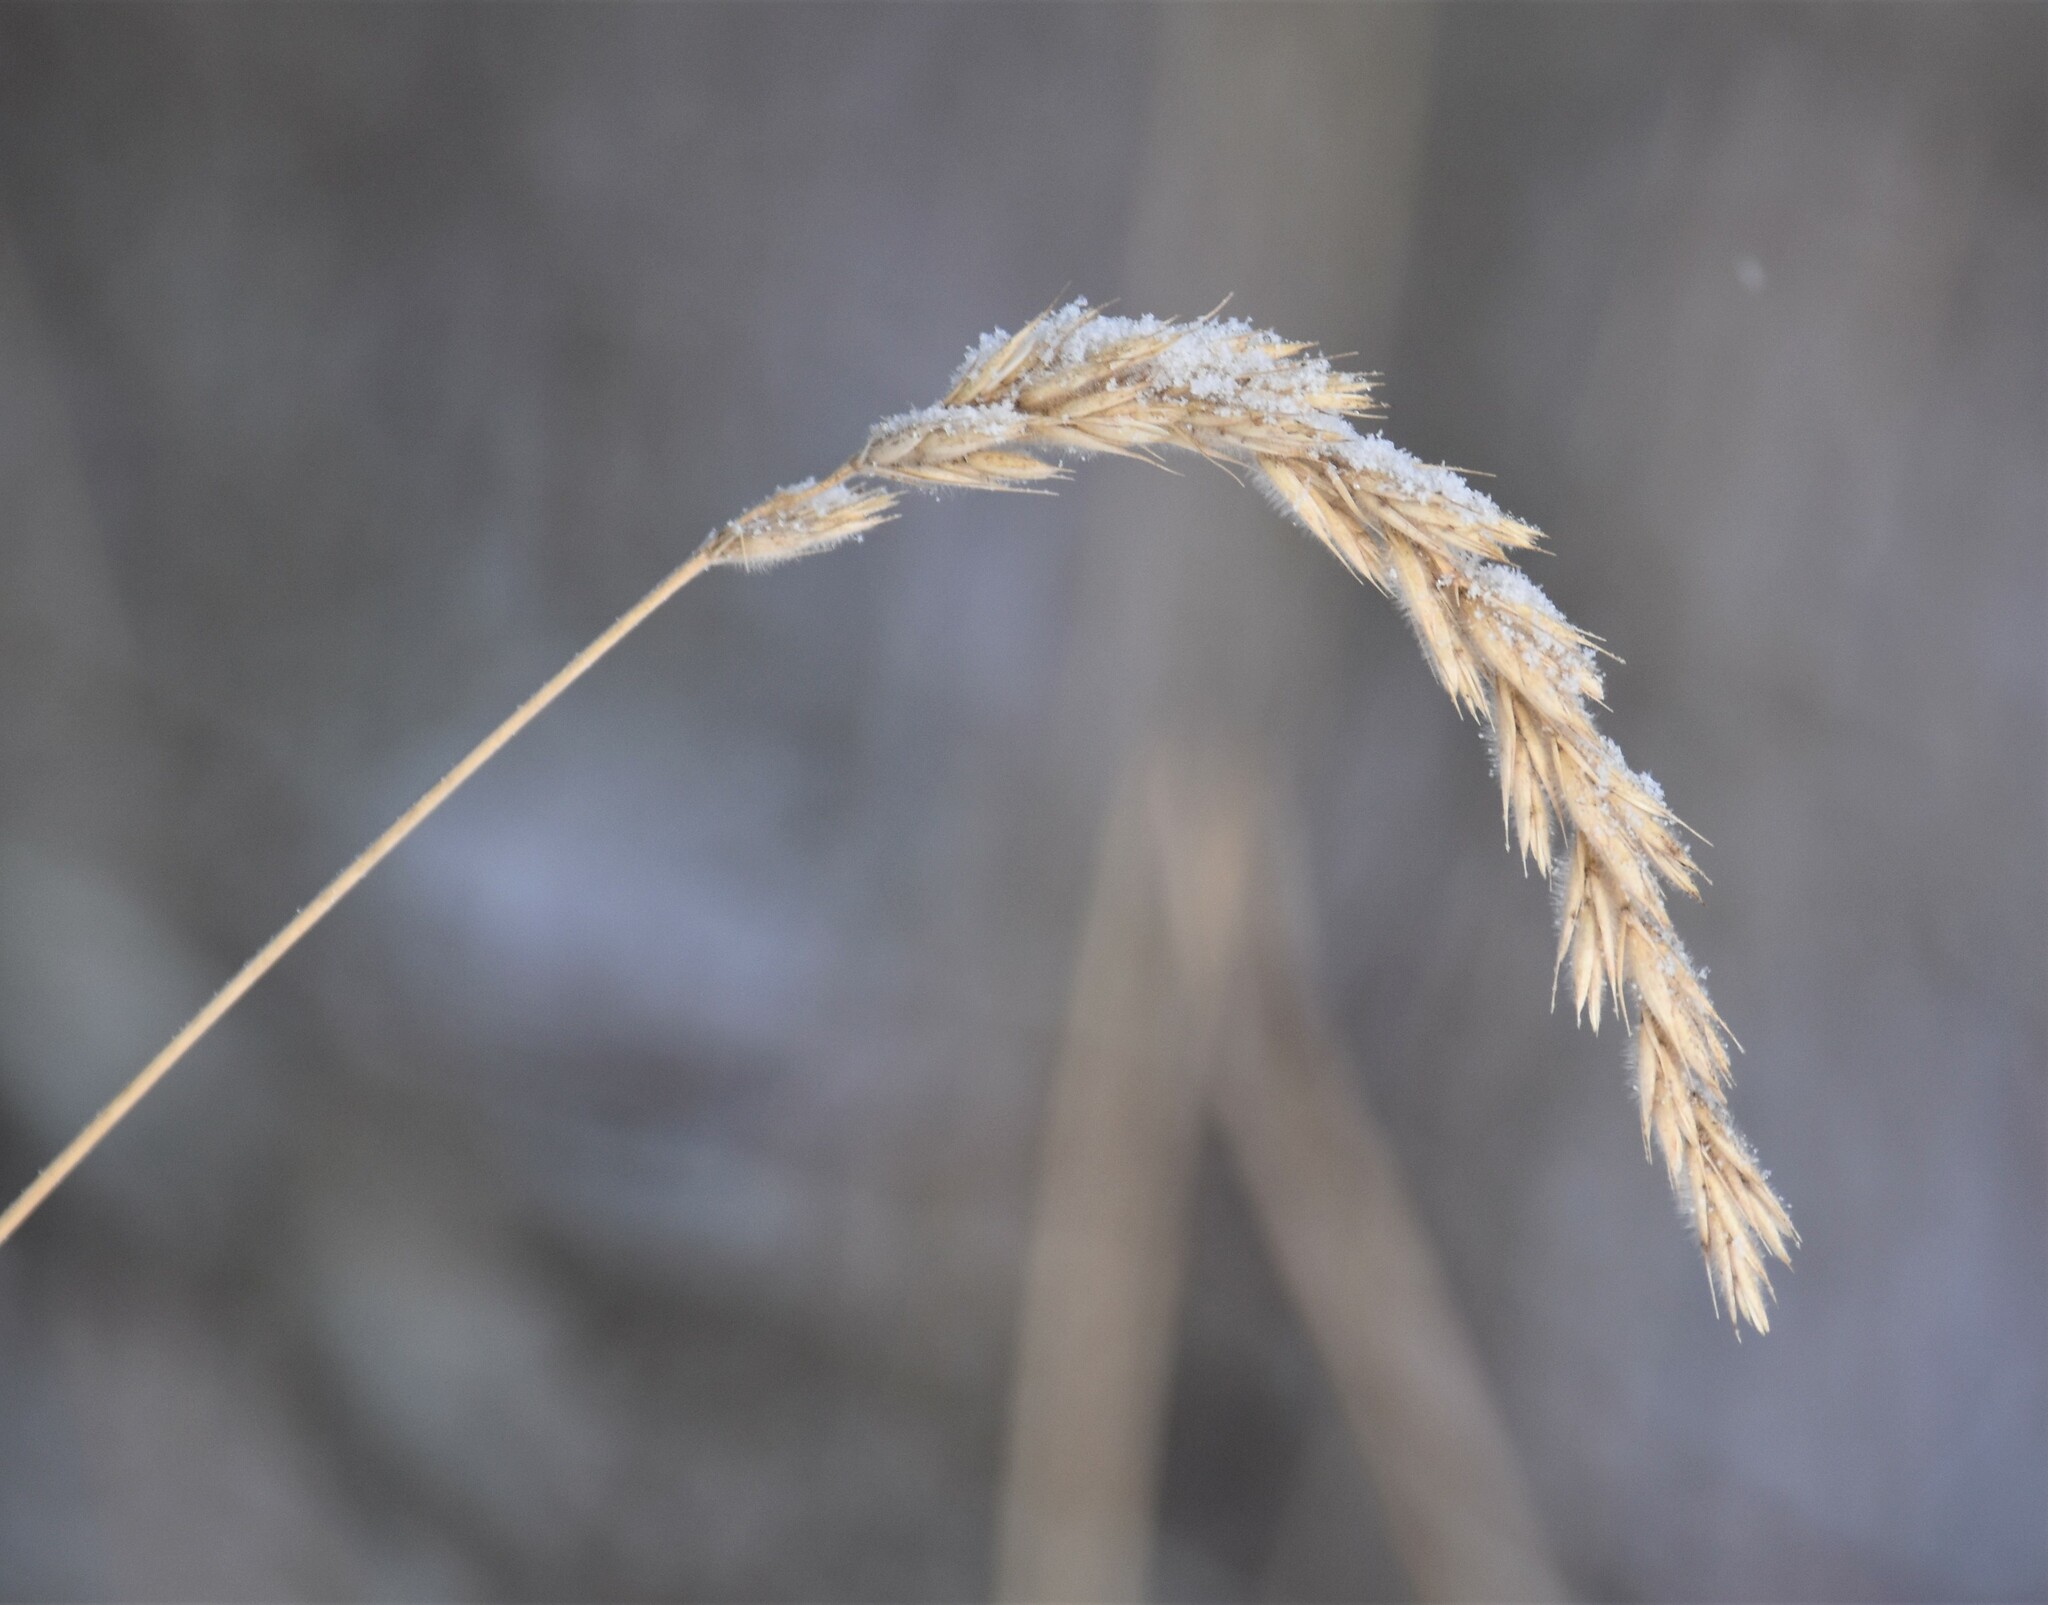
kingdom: Plantae
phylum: Tracheophyta
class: Liliopsida
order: Poales
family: Poaceae
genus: Leymus
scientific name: Leymus innovatus
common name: Boreal wild rye
